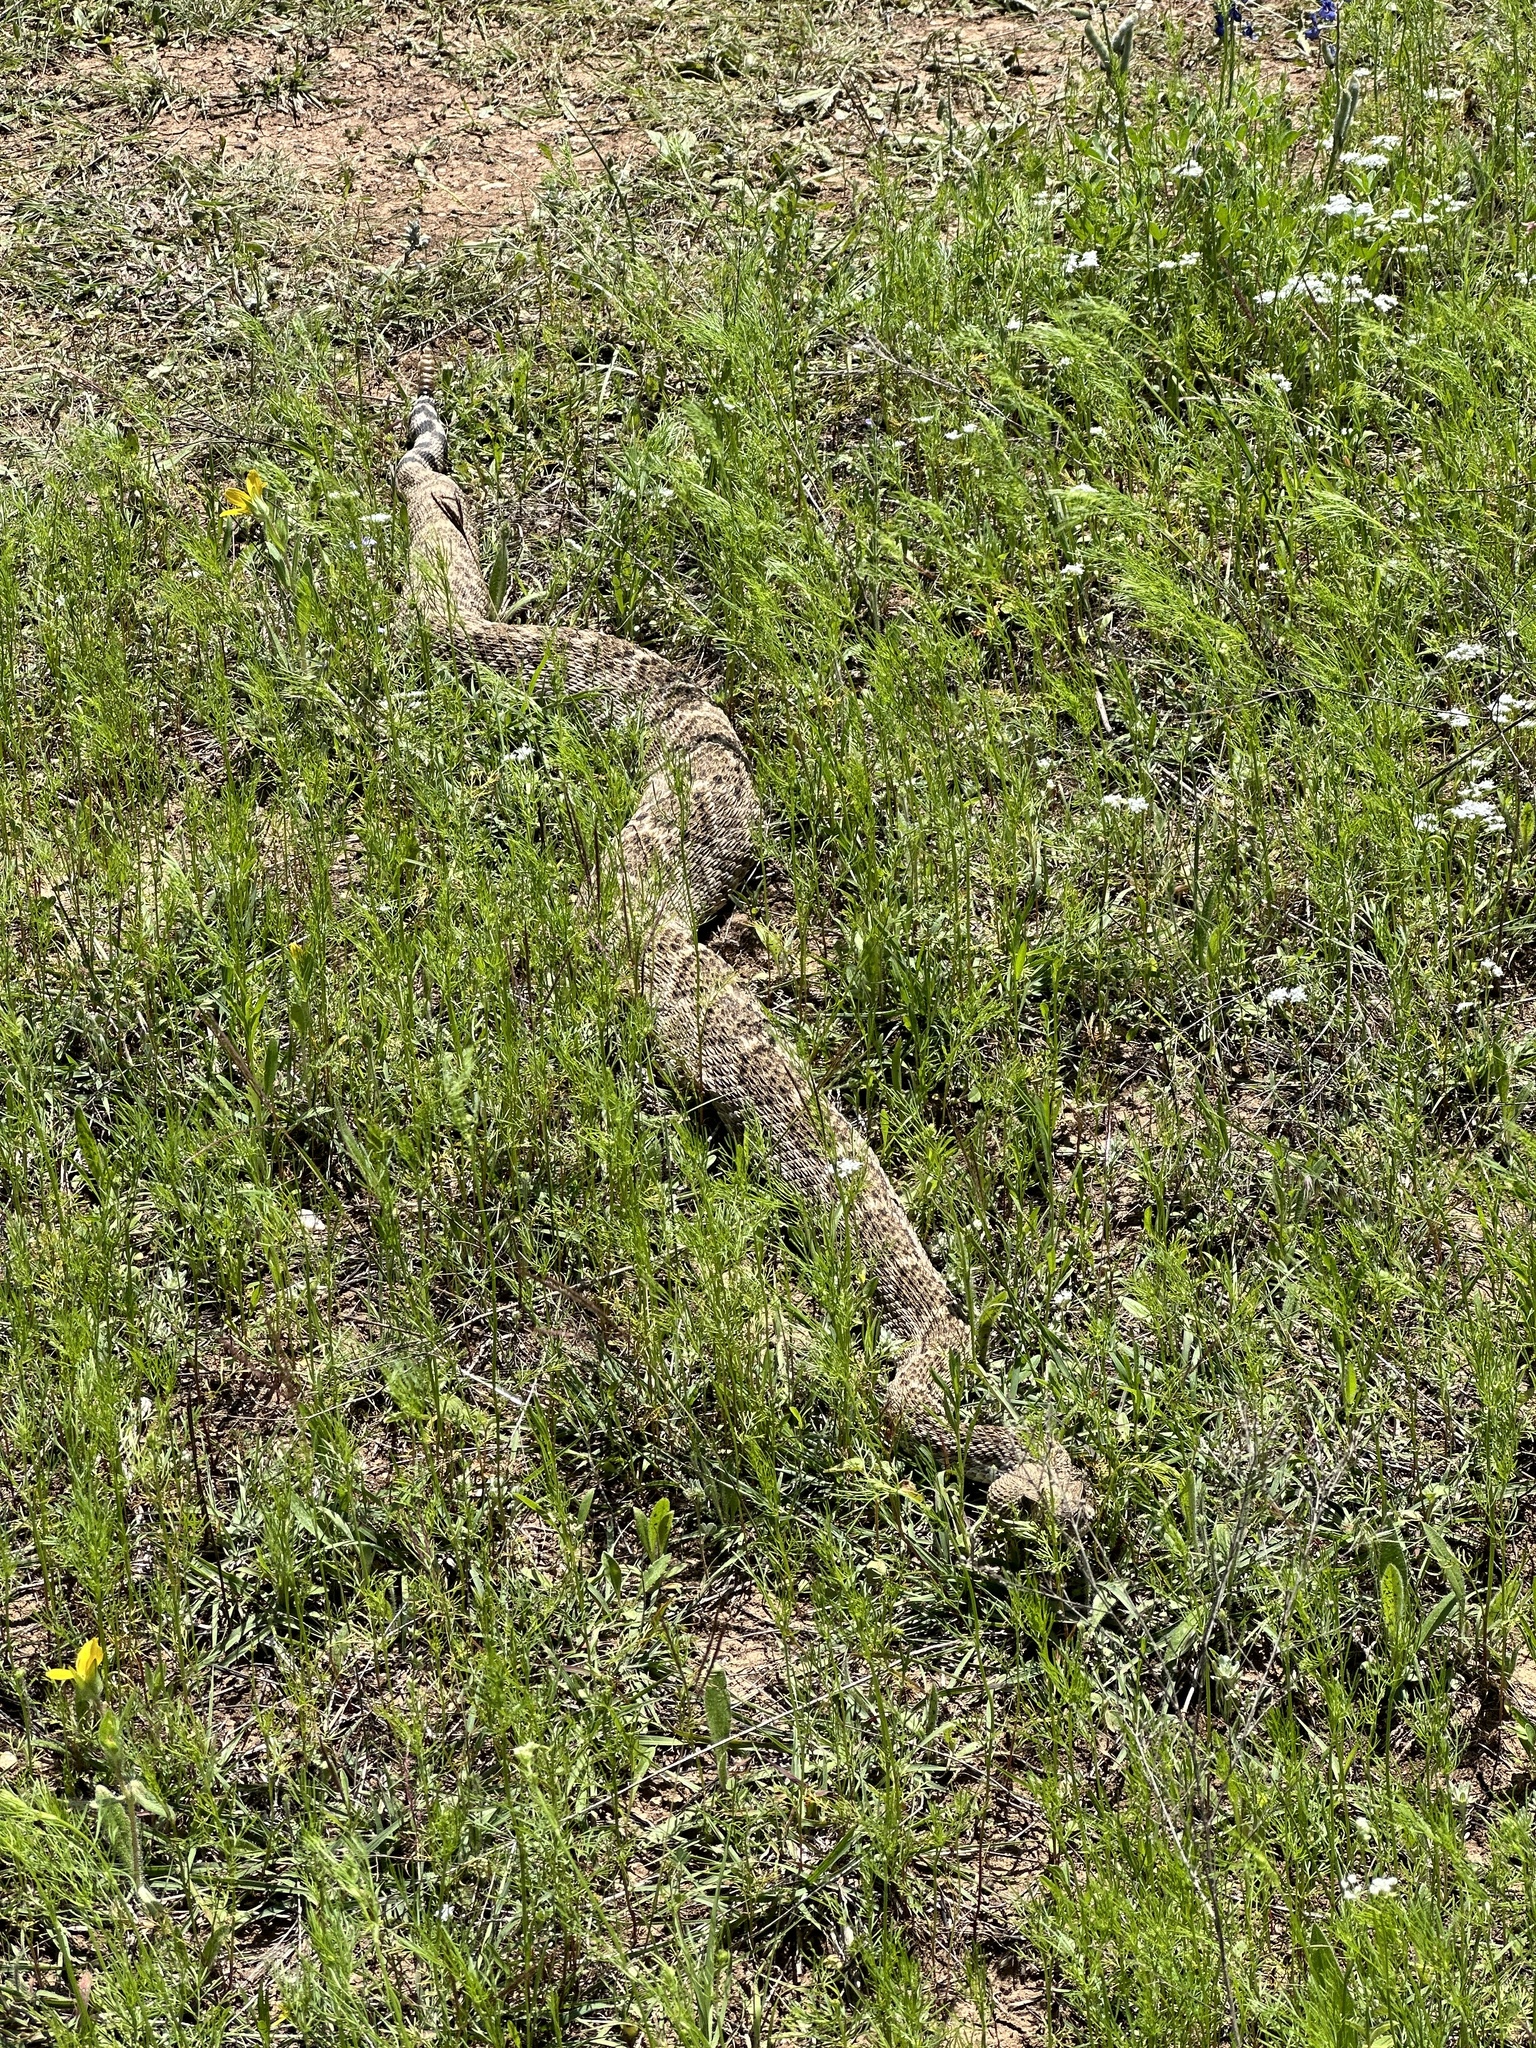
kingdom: Animalia
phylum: Chordata
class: Squamata
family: Viperidae
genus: Crotalus
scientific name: Crotalus atrox
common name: Western diamond-backed rattlesnake
